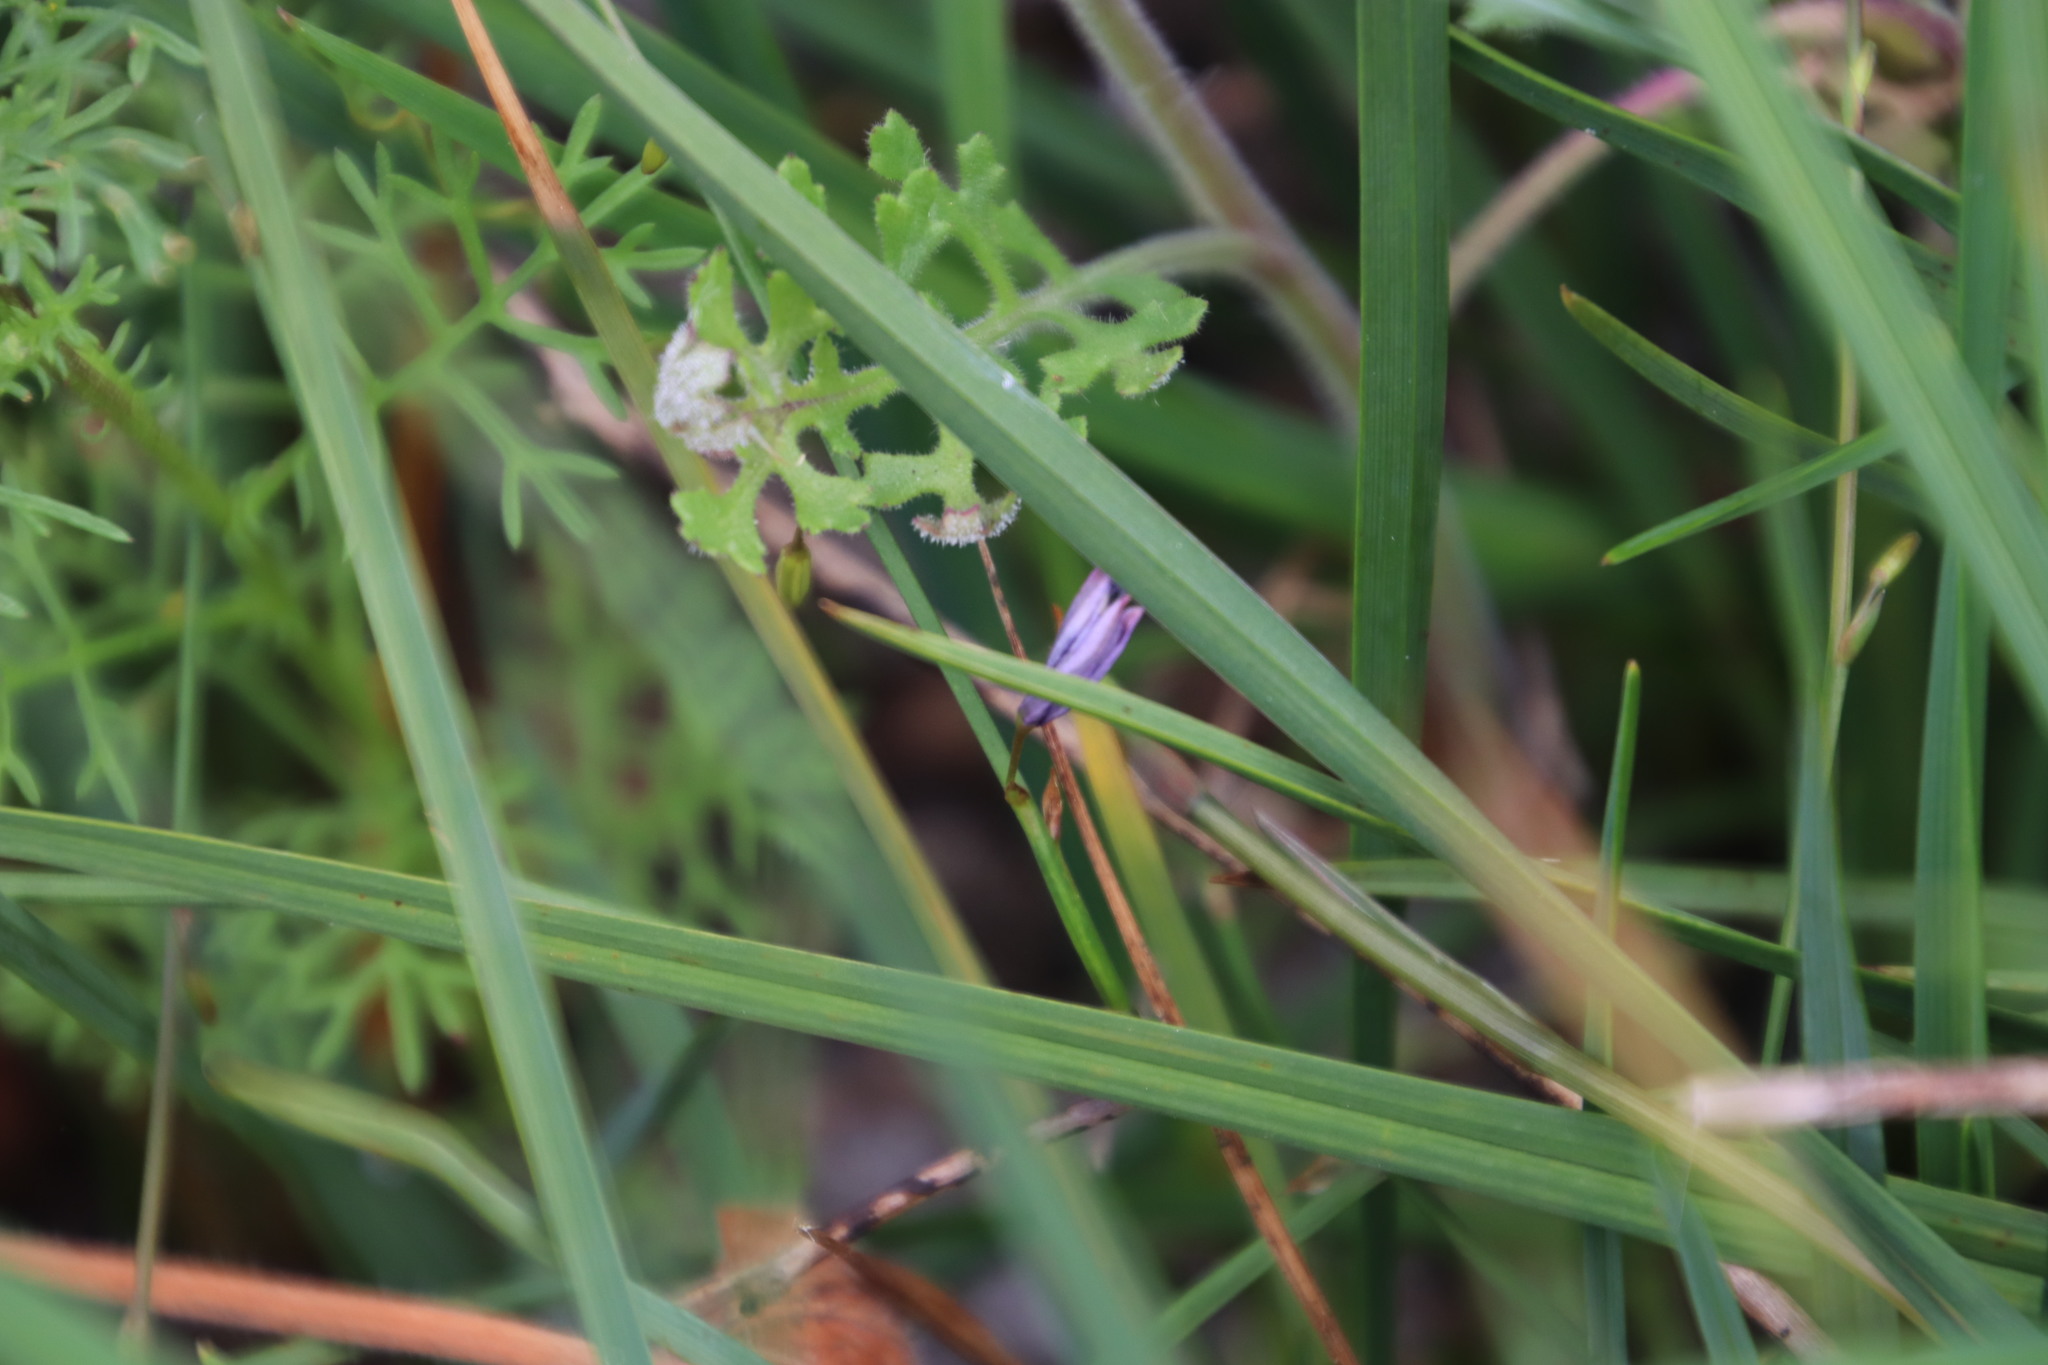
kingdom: Plantae
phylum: Tracheophyta
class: Liliopsida
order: Asparagales
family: Asphodelaceae
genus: Caesia
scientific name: Caesia contorta
